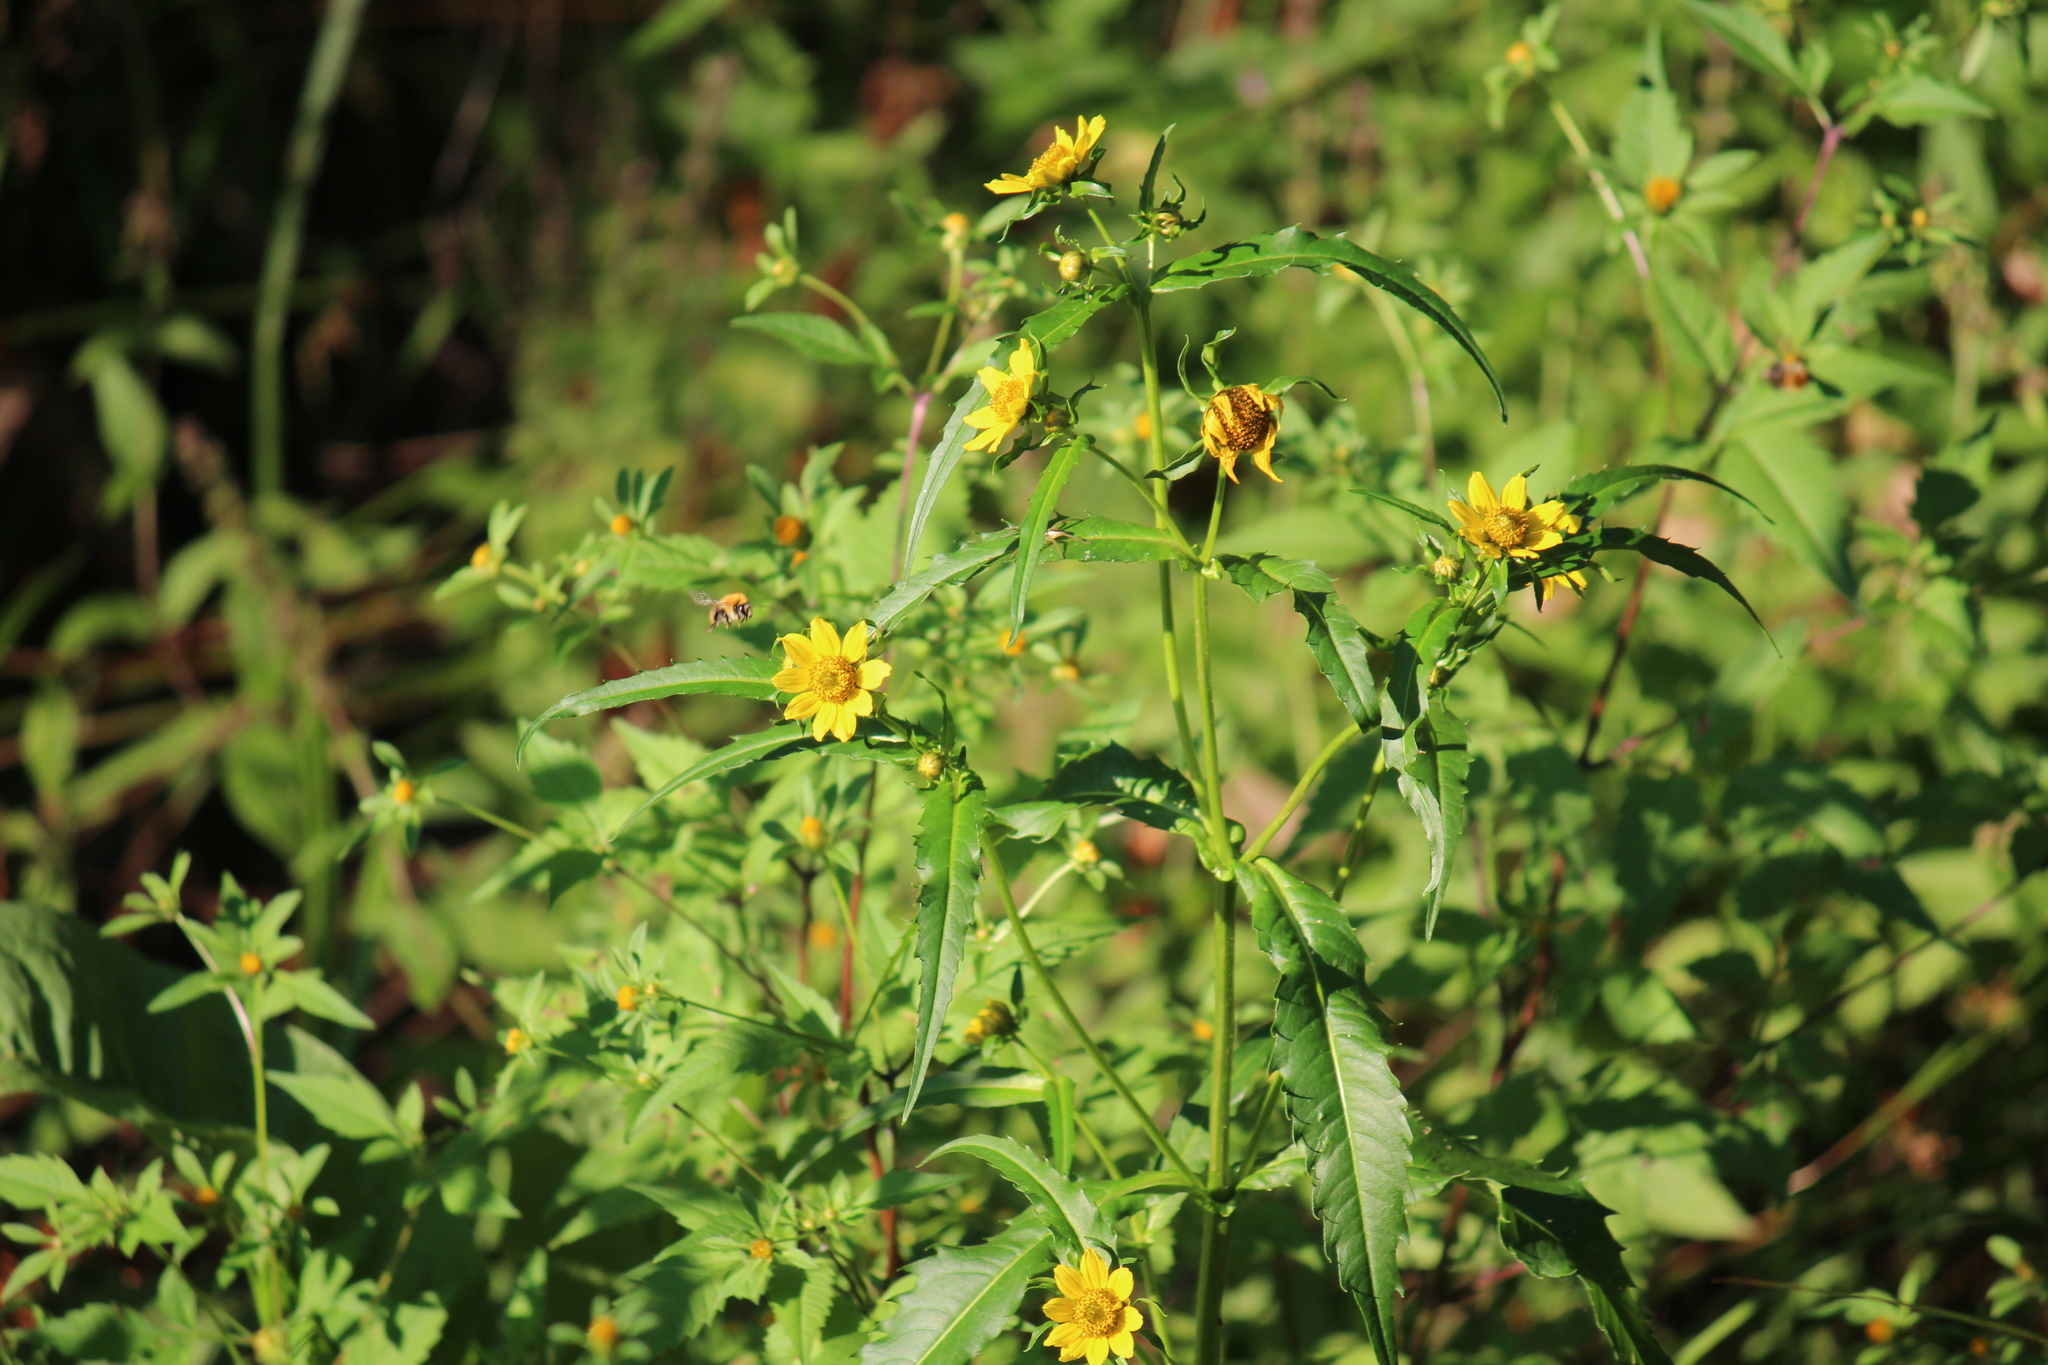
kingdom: Plantae
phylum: Tracheophyta
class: Magnoliopsida
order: Asterales
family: Asteraceae
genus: Bidens
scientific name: Bidens cernua
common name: Nodding bur-marigold
